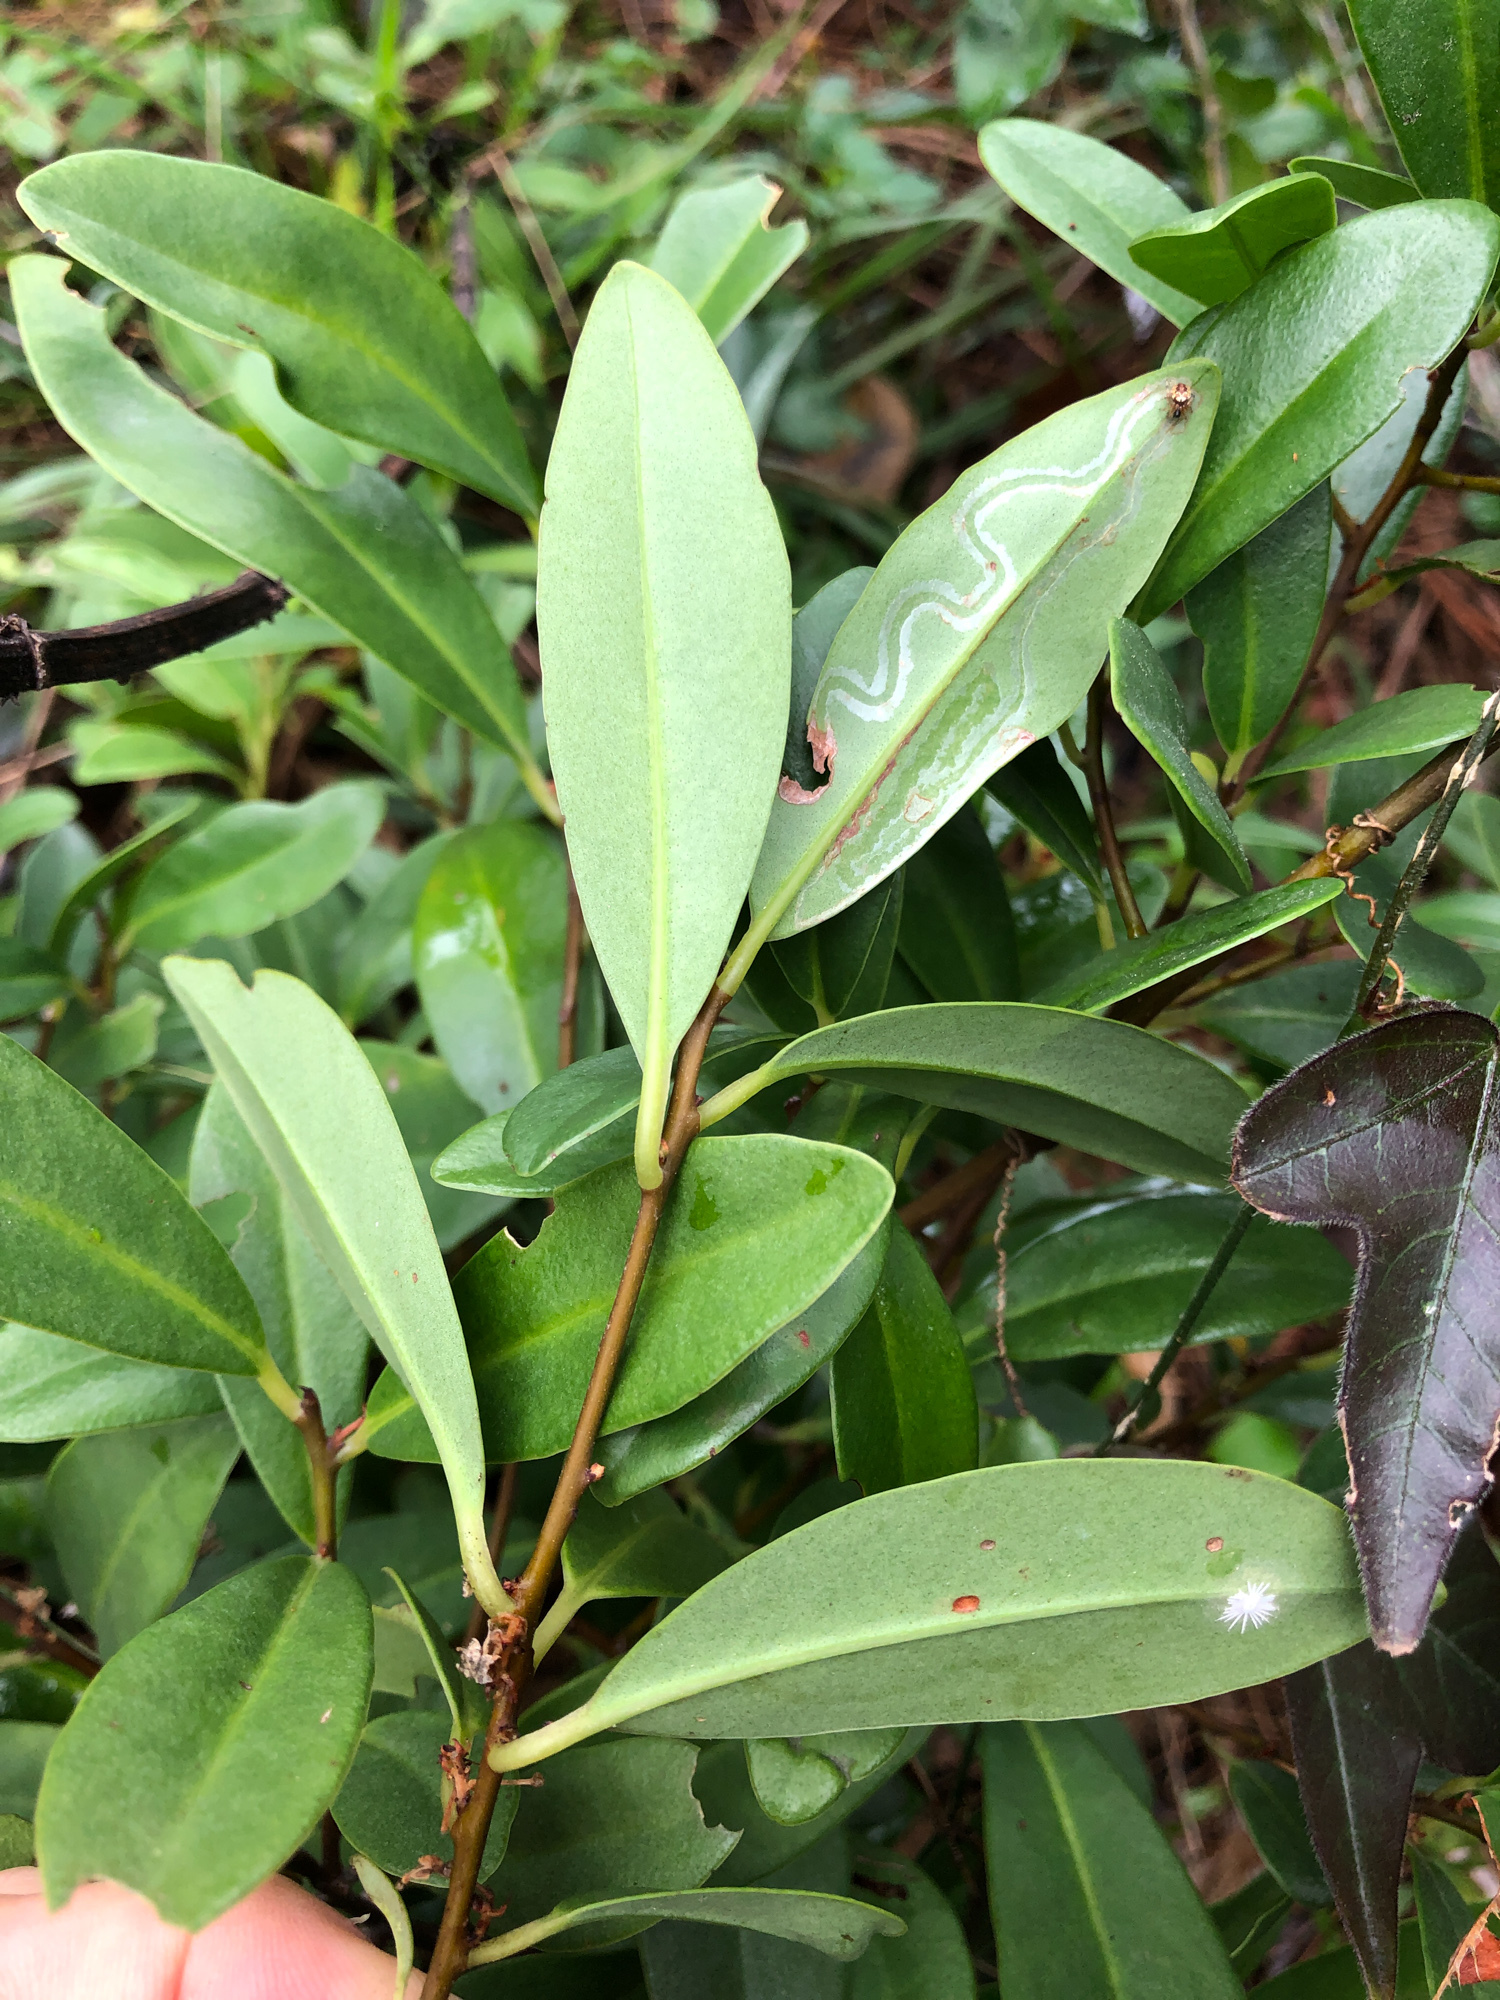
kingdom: Plantae
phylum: Tracheophyta
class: Magnoliopsida
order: Ericales
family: Primulaceae
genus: Embelia
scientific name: Embelia laeta
